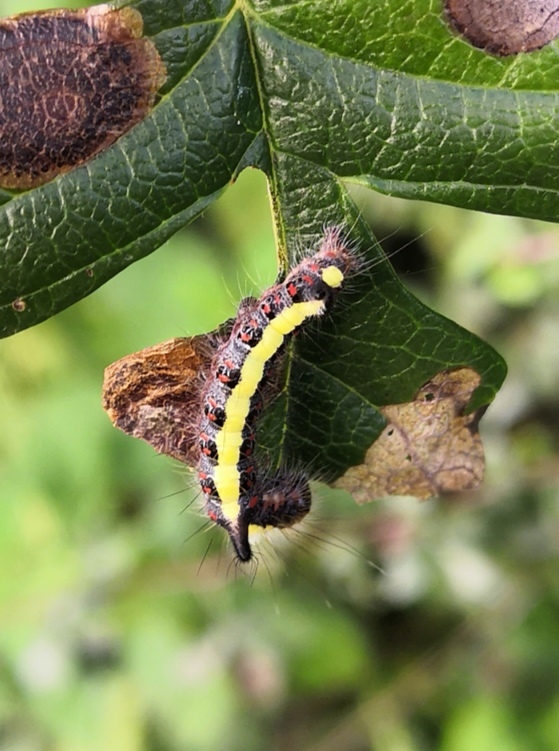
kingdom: Animalia
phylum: Arthropoda
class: Insecta
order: Lepidoptera
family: Noctuidae
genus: Acronicta
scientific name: Acronicta psi
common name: Grey dagger
